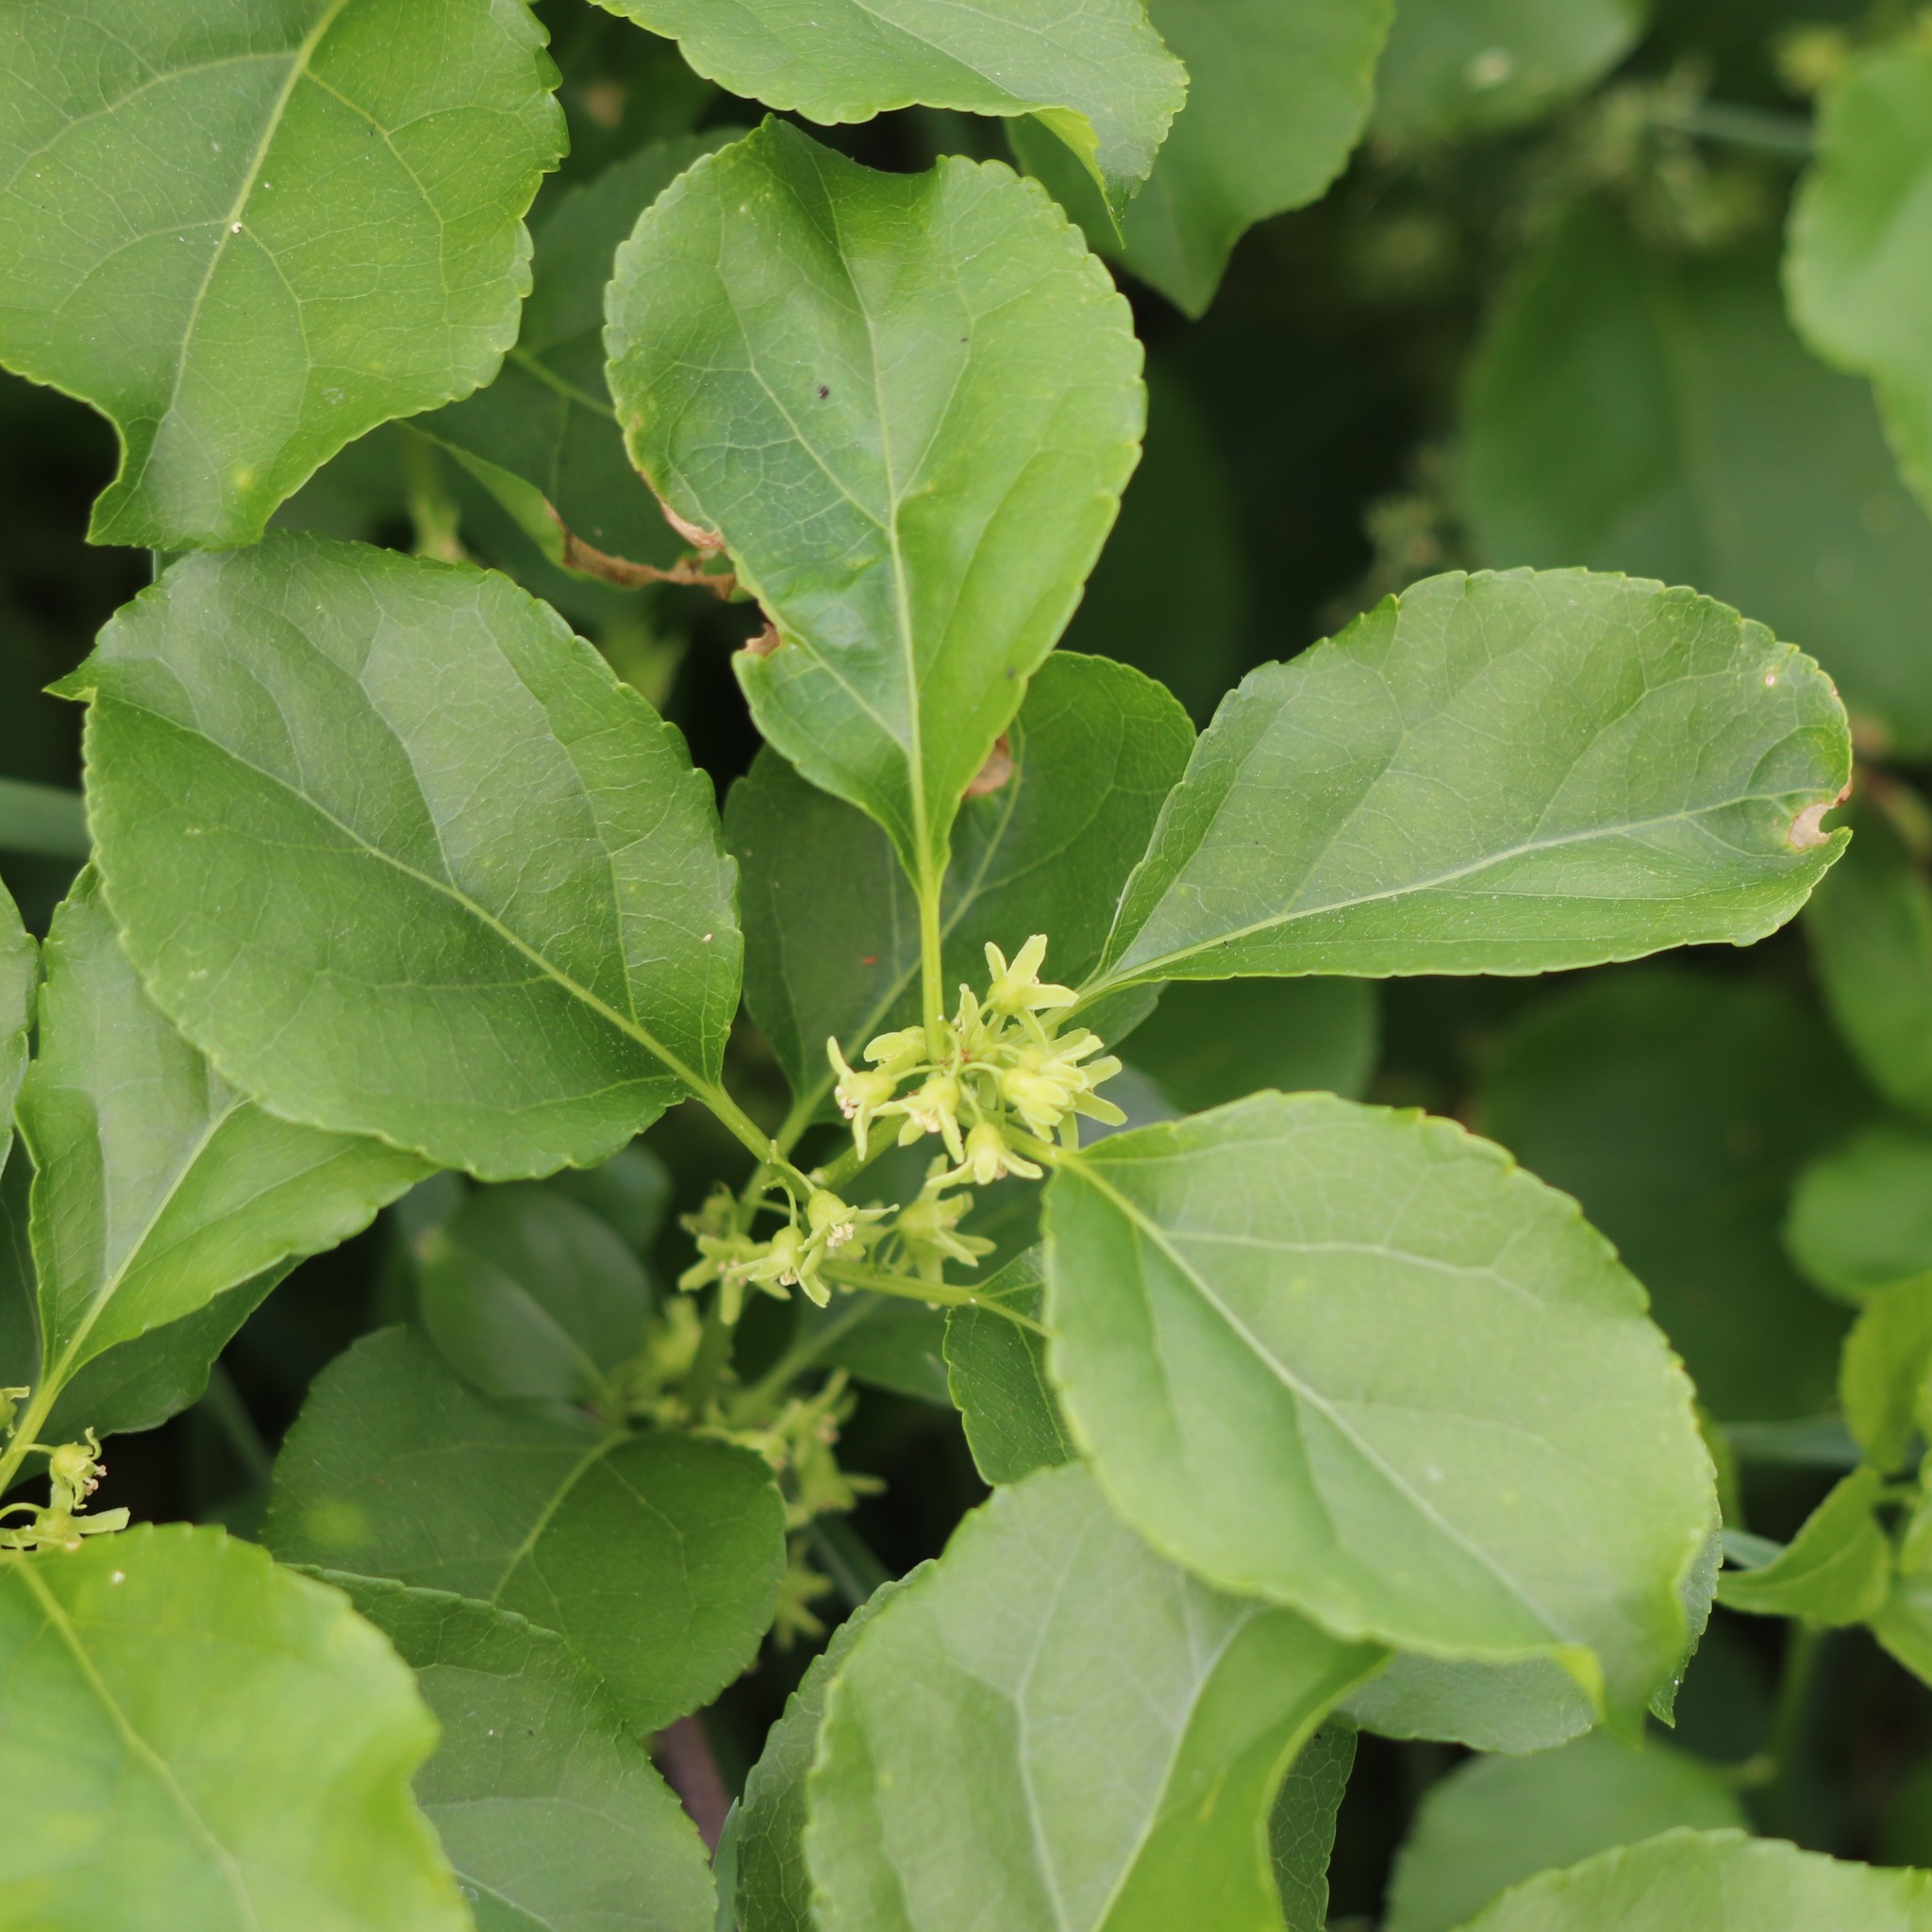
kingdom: Plantae
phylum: Tracheophyta
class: Magnoliopsida
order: Celastrales
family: Celastraceae
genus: Celastrus
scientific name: Celastrus orbiculatus
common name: Oriental bittersweet
